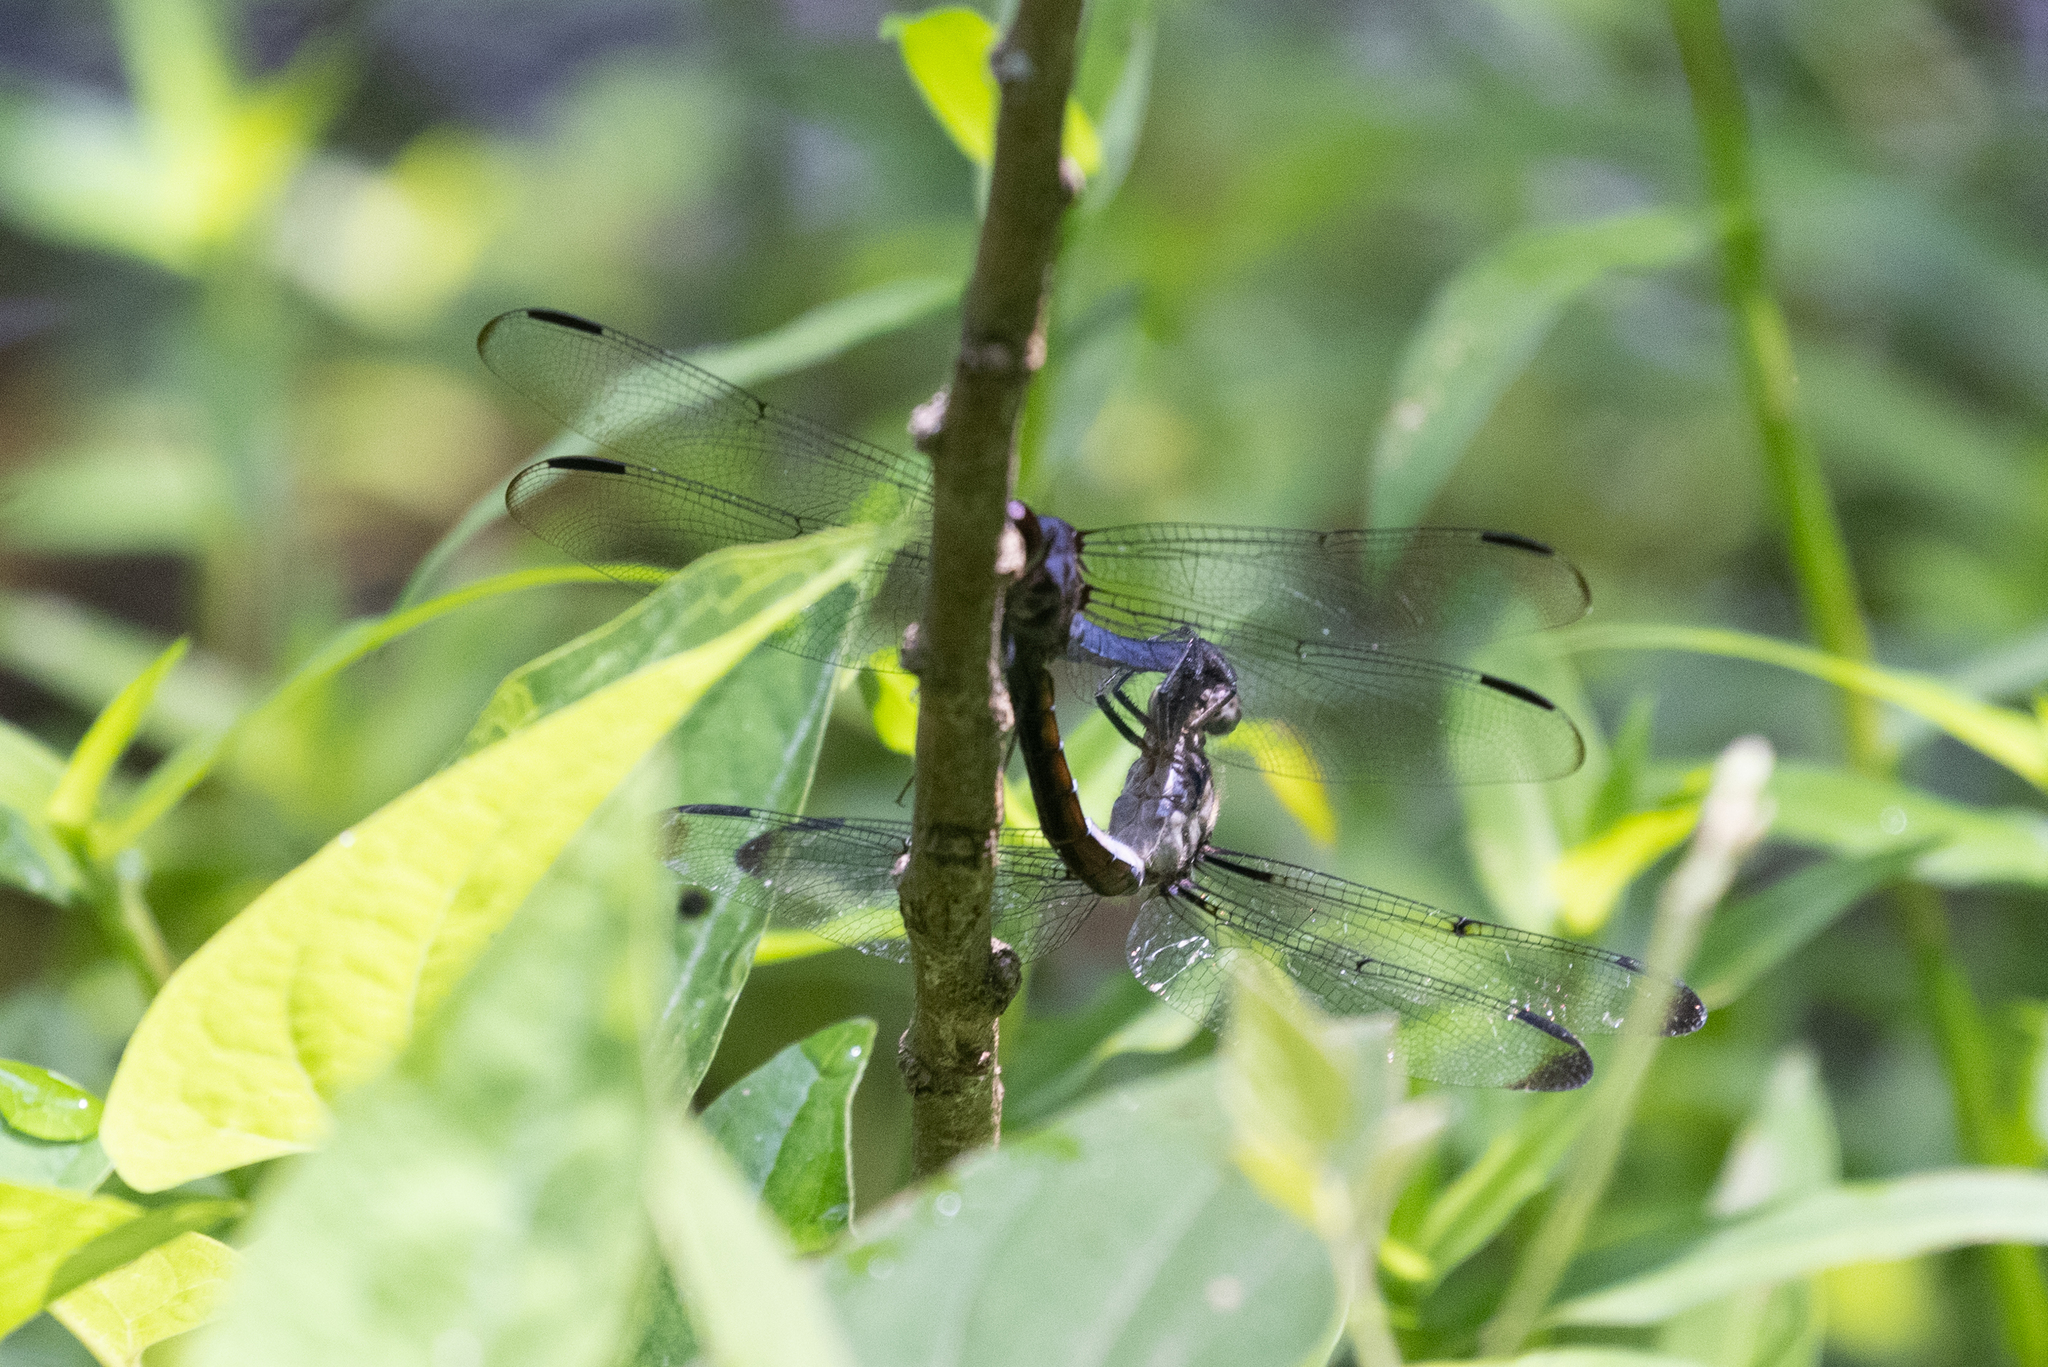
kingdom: Animalia
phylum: Arthropoda
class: Insecta
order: Odonata
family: Libellulidae
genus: Libellula
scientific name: Libellula incesta
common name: Slaty skimmer
